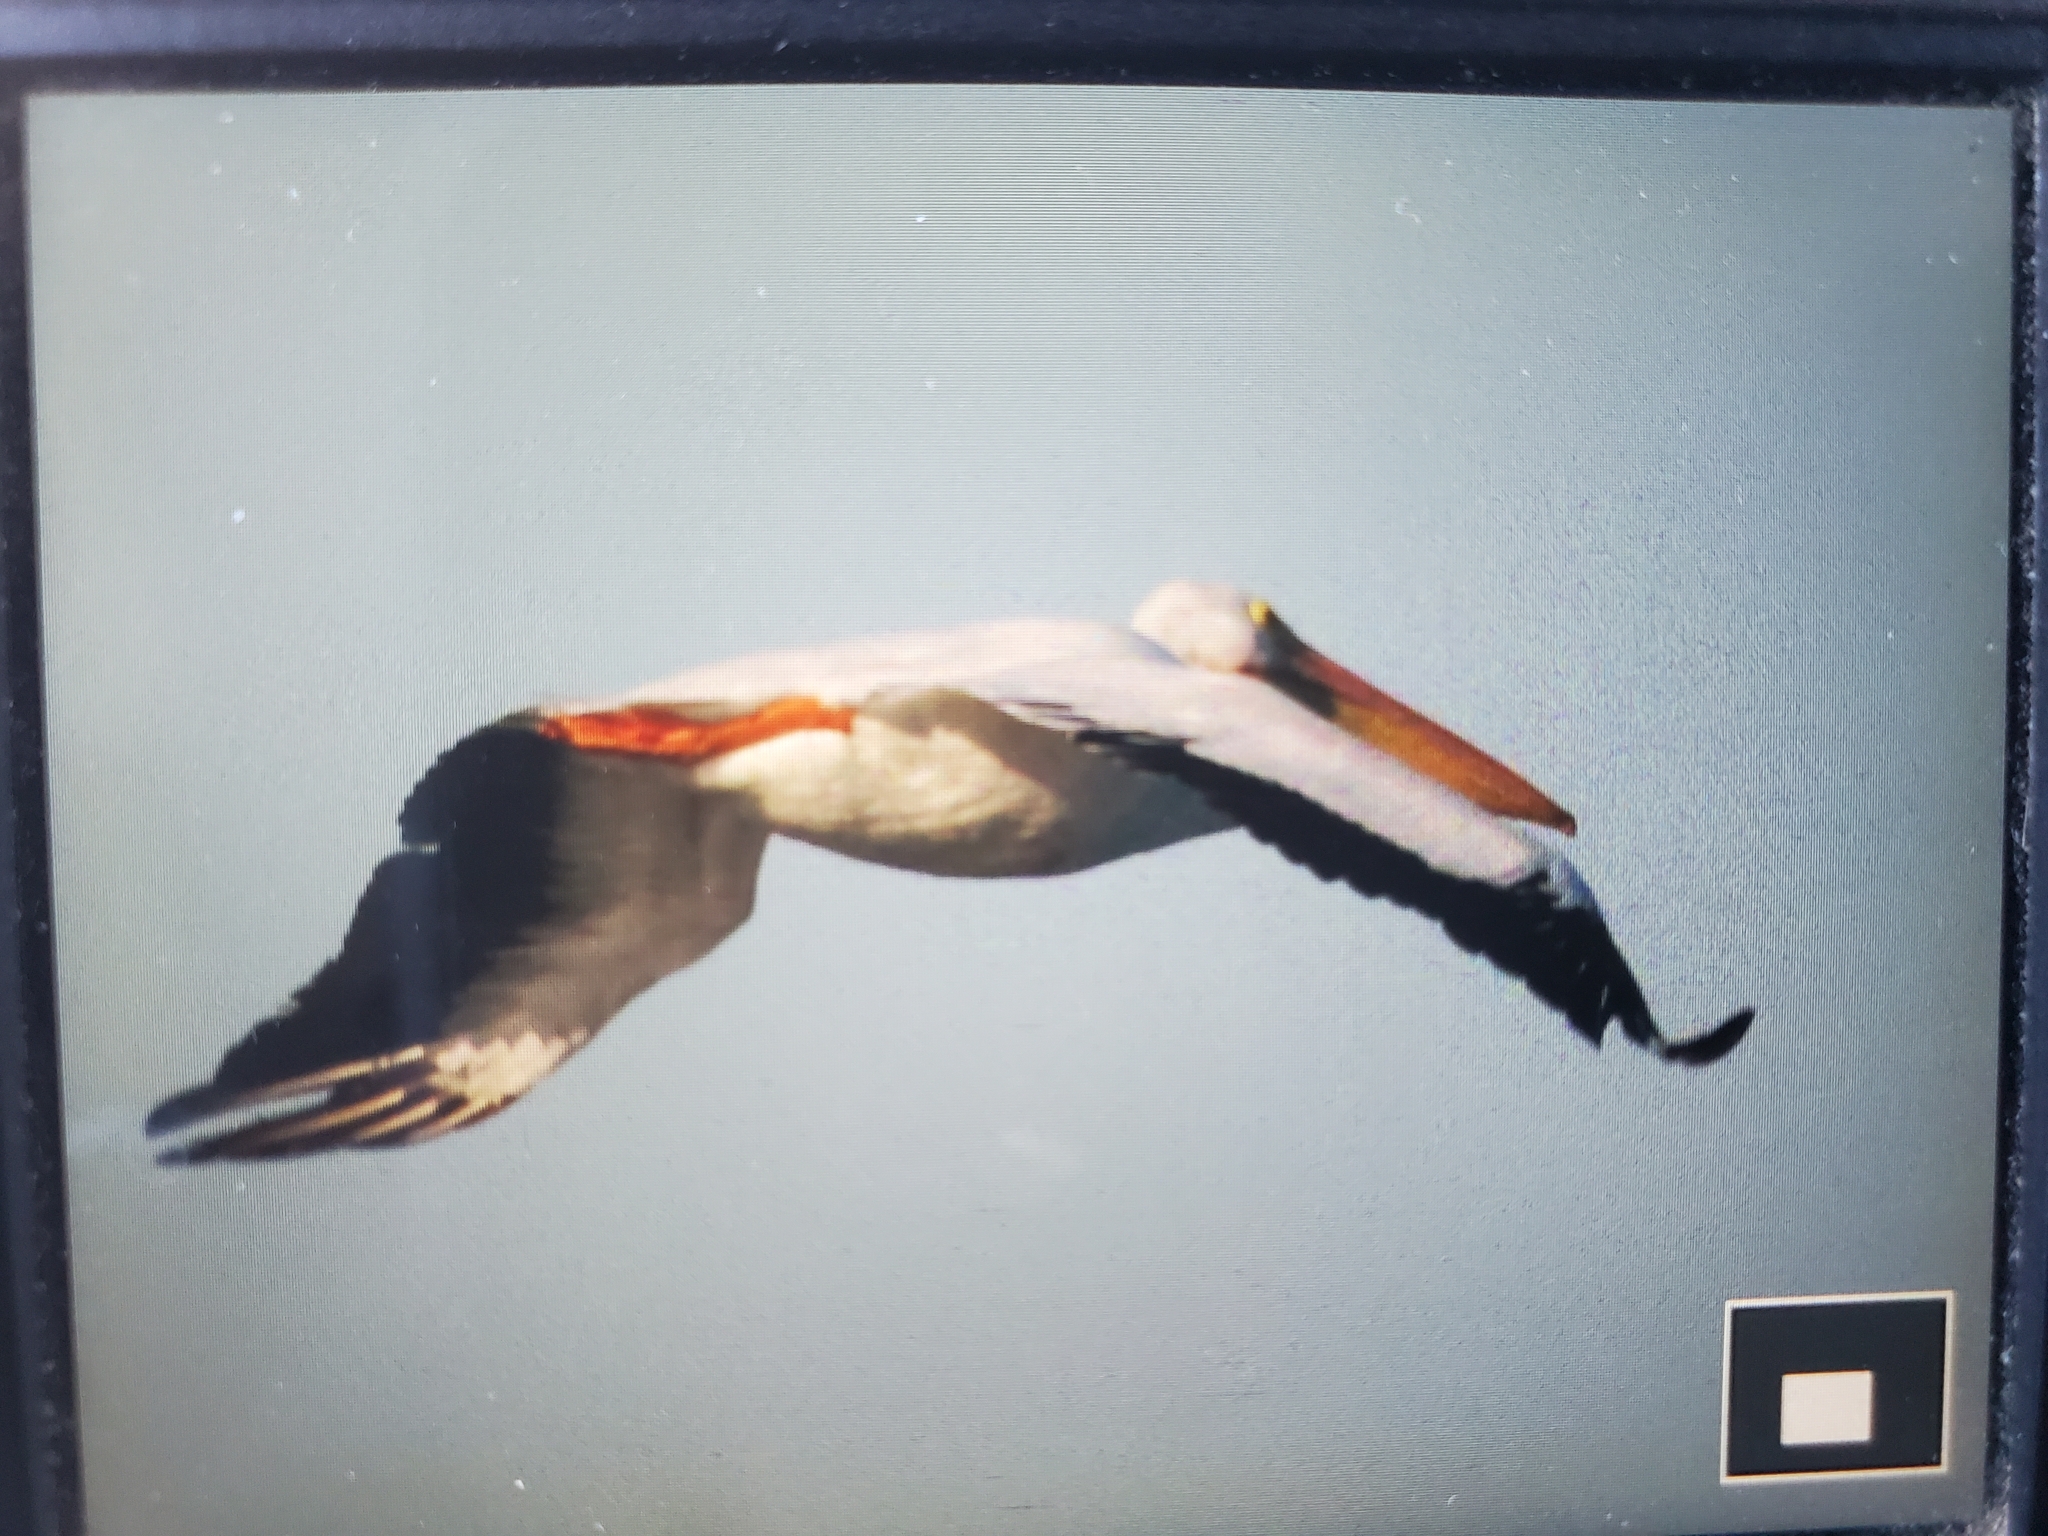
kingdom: Animalia
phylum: Chordata
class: Aves
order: Pelecaniformes
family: Pelecanidae
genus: Pelecanus
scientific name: Pelecanus erythrorhynchos
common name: American white pelican
